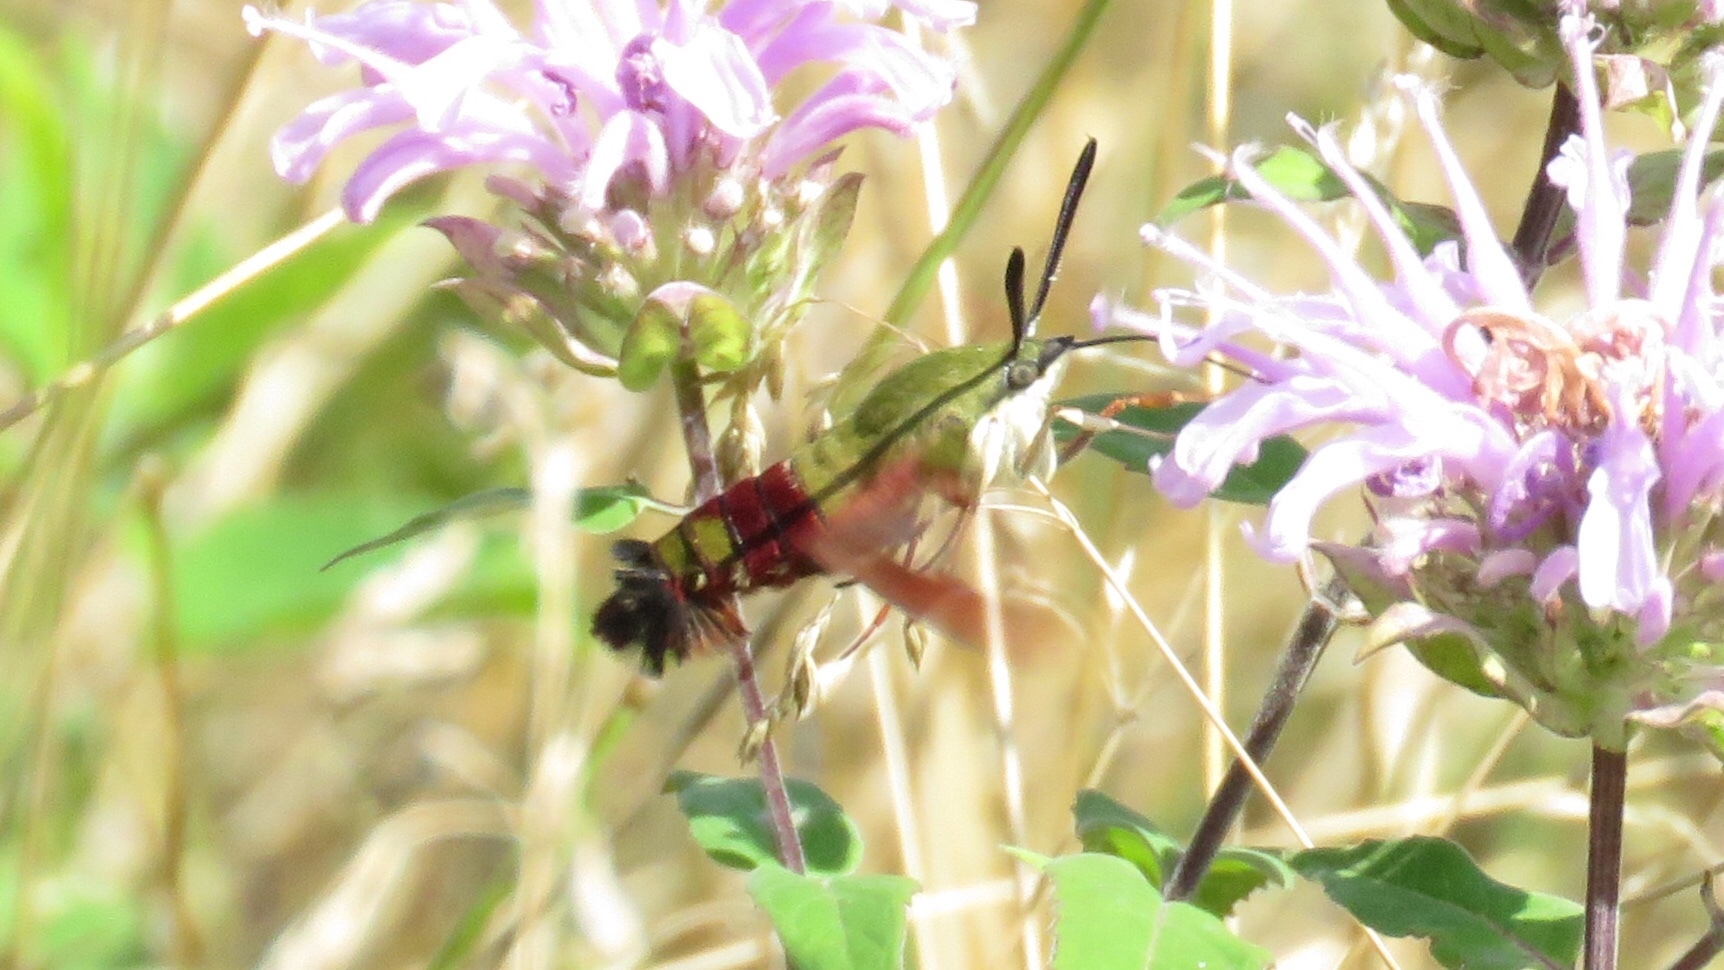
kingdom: Animalia
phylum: Arthropoda
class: Insecta
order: Lepidoptera
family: Sphingidae
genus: Hemaris
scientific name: Hemaris thysbe
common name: Common clear-wing
